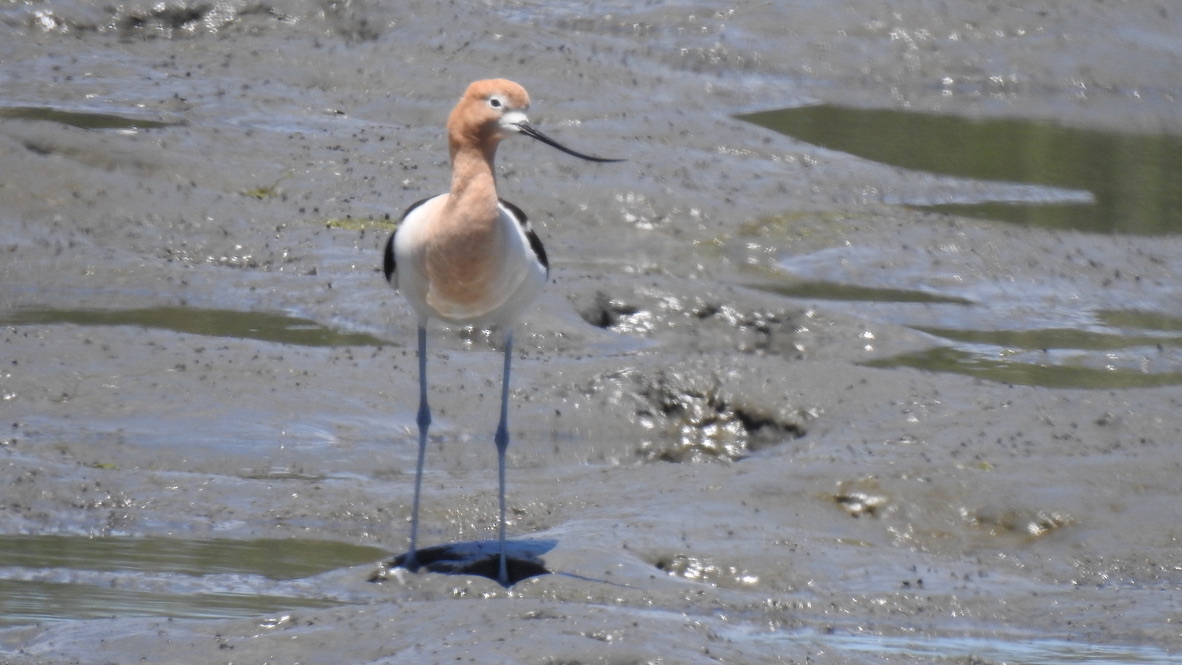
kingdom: Animalia
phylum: Chordata
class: Aves
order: Charadriiformes
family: Recurvirostridae
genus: Recurvirostra
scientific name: Recurvirostra americana
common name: American avocet
